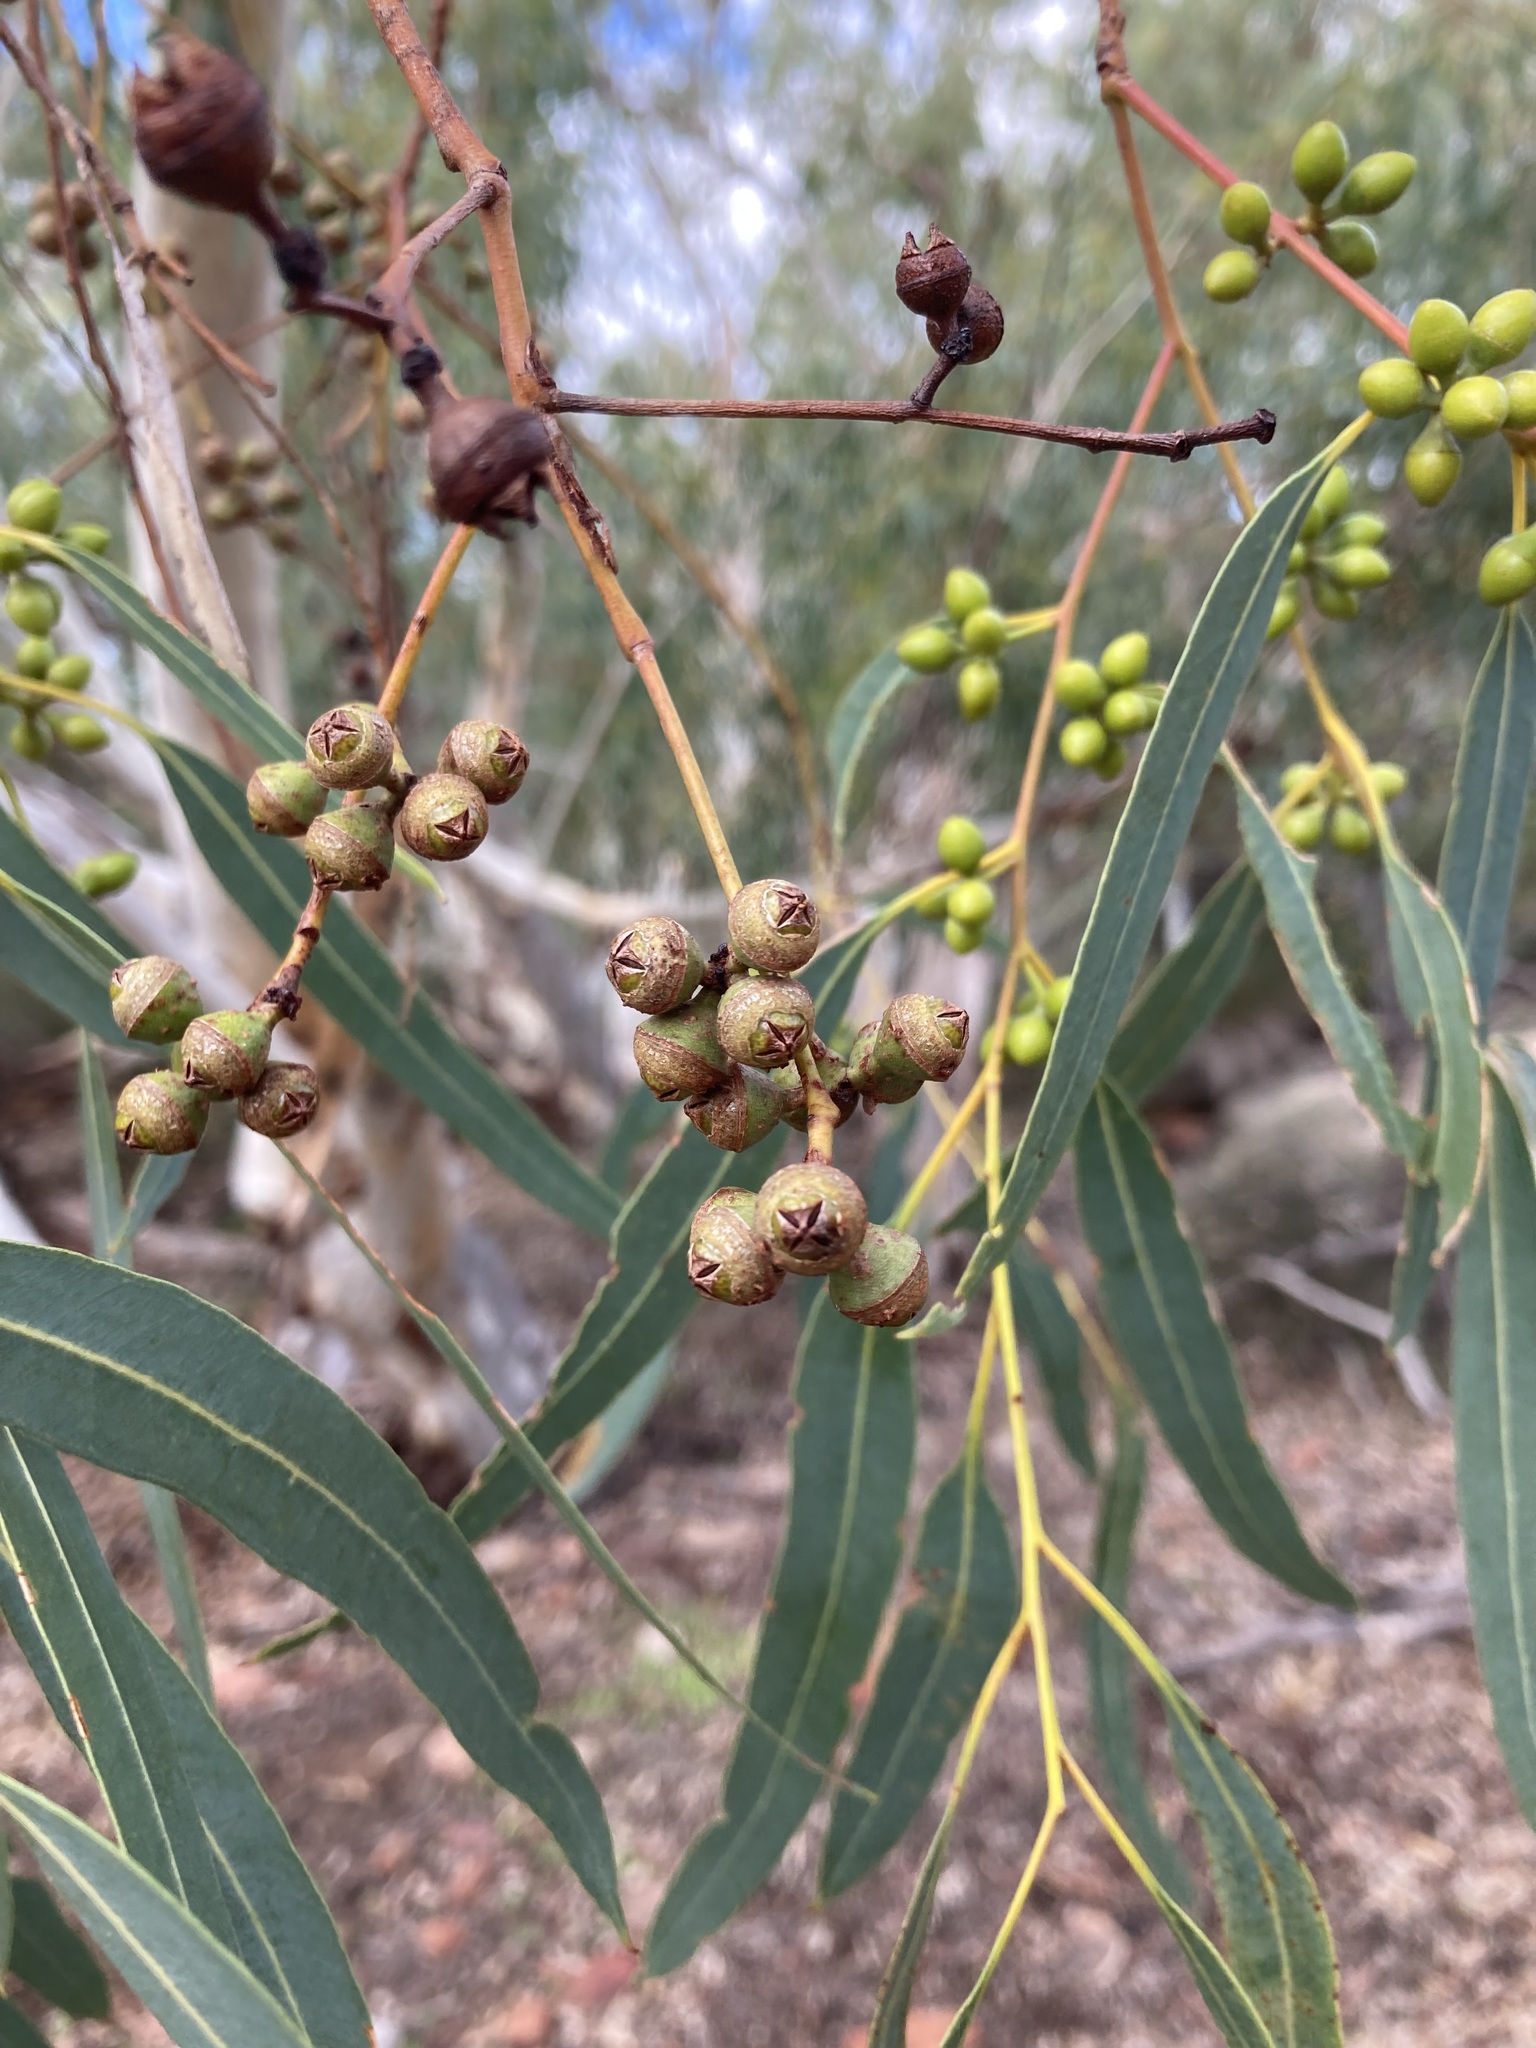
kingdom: Plantae
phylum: Tracheophyta
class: Magnoliopsida
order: Myrtales
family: Myrtaceae
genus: Eucalyptus
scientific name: Eucalyptus camaldulensis
